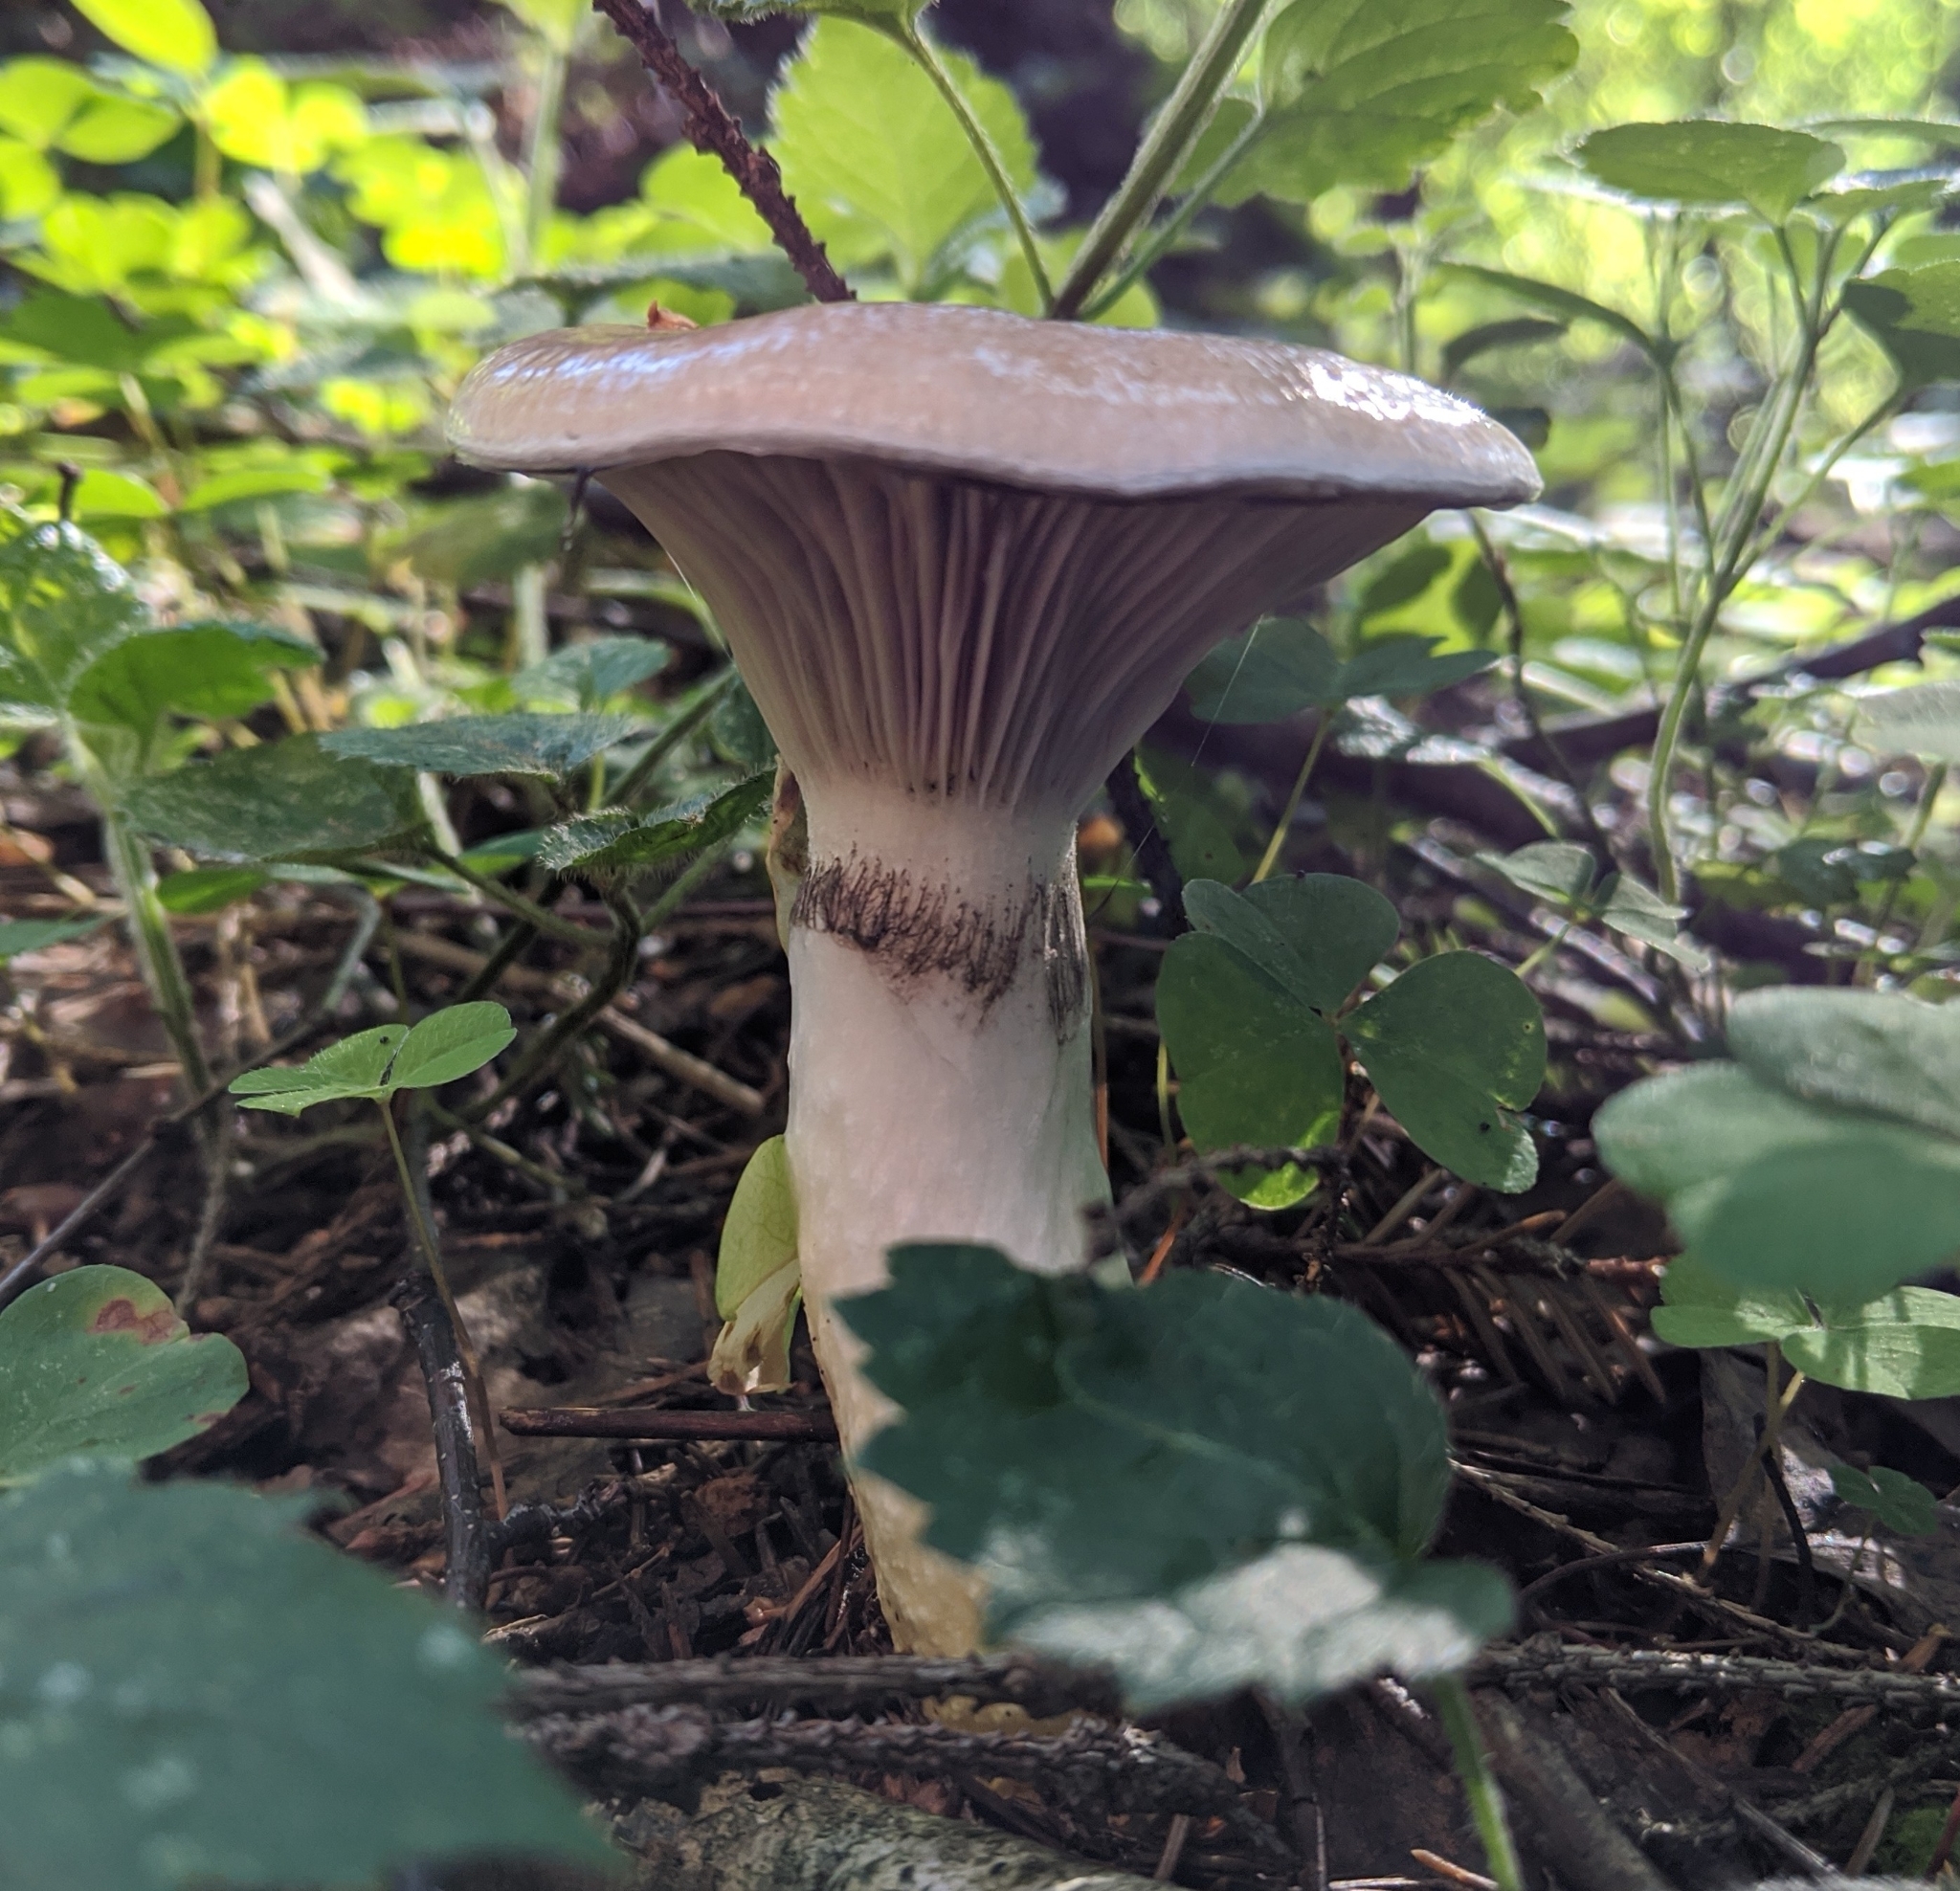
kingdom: Fungi
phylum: Basidiomycota
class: Agaricomycetes
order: Boletales
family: Gomphidiaceae
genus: Gomphidius
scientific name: Gomphidius glutinosus
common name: Slimy spike
